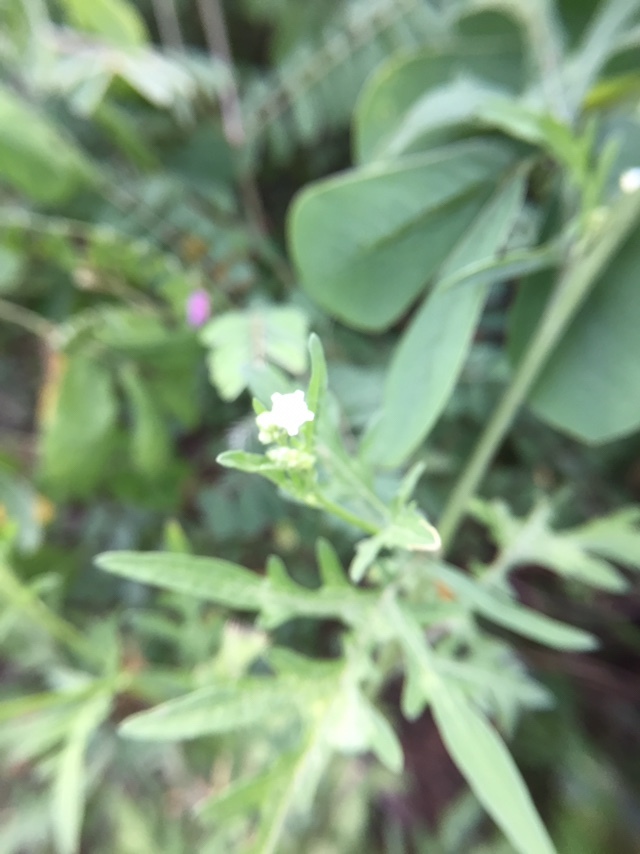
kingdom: Plantae
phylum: Tracheophyta
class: Magnoliopsida
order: Asterales
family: Asteraceae
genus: Parthenium
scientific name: Parthenium hysterophorus
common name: Santa maria feverfew
